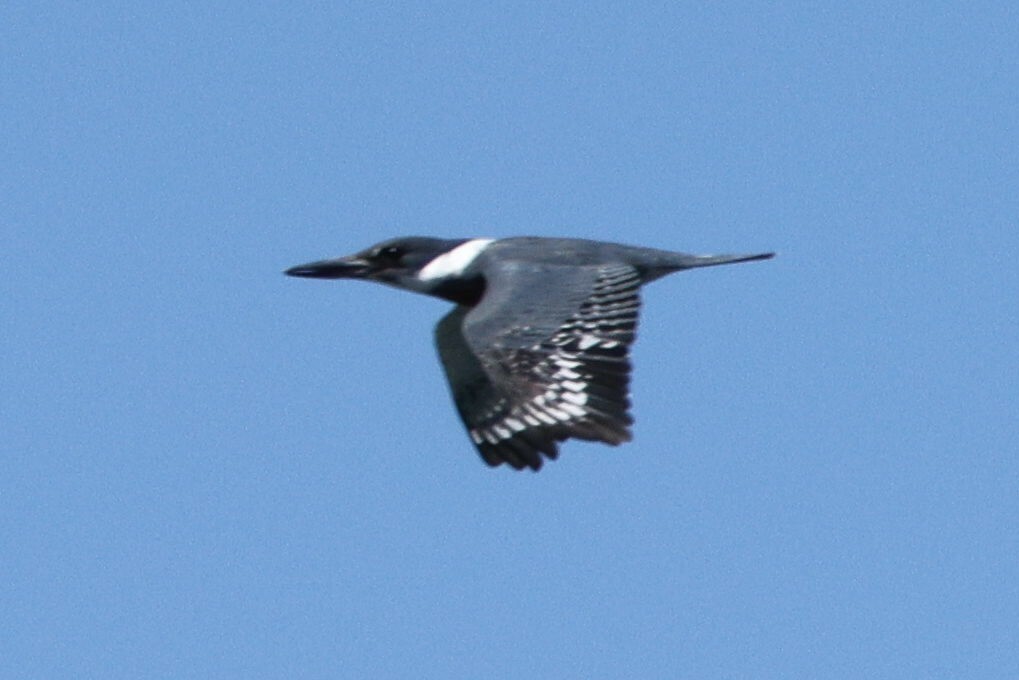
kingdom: Animalia
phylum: Chordata
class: Aves
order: Coraciiformes
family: Alcedinidae
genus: Megaceryle
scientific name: Megaceryle torquata
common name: Ringed kingfisher
